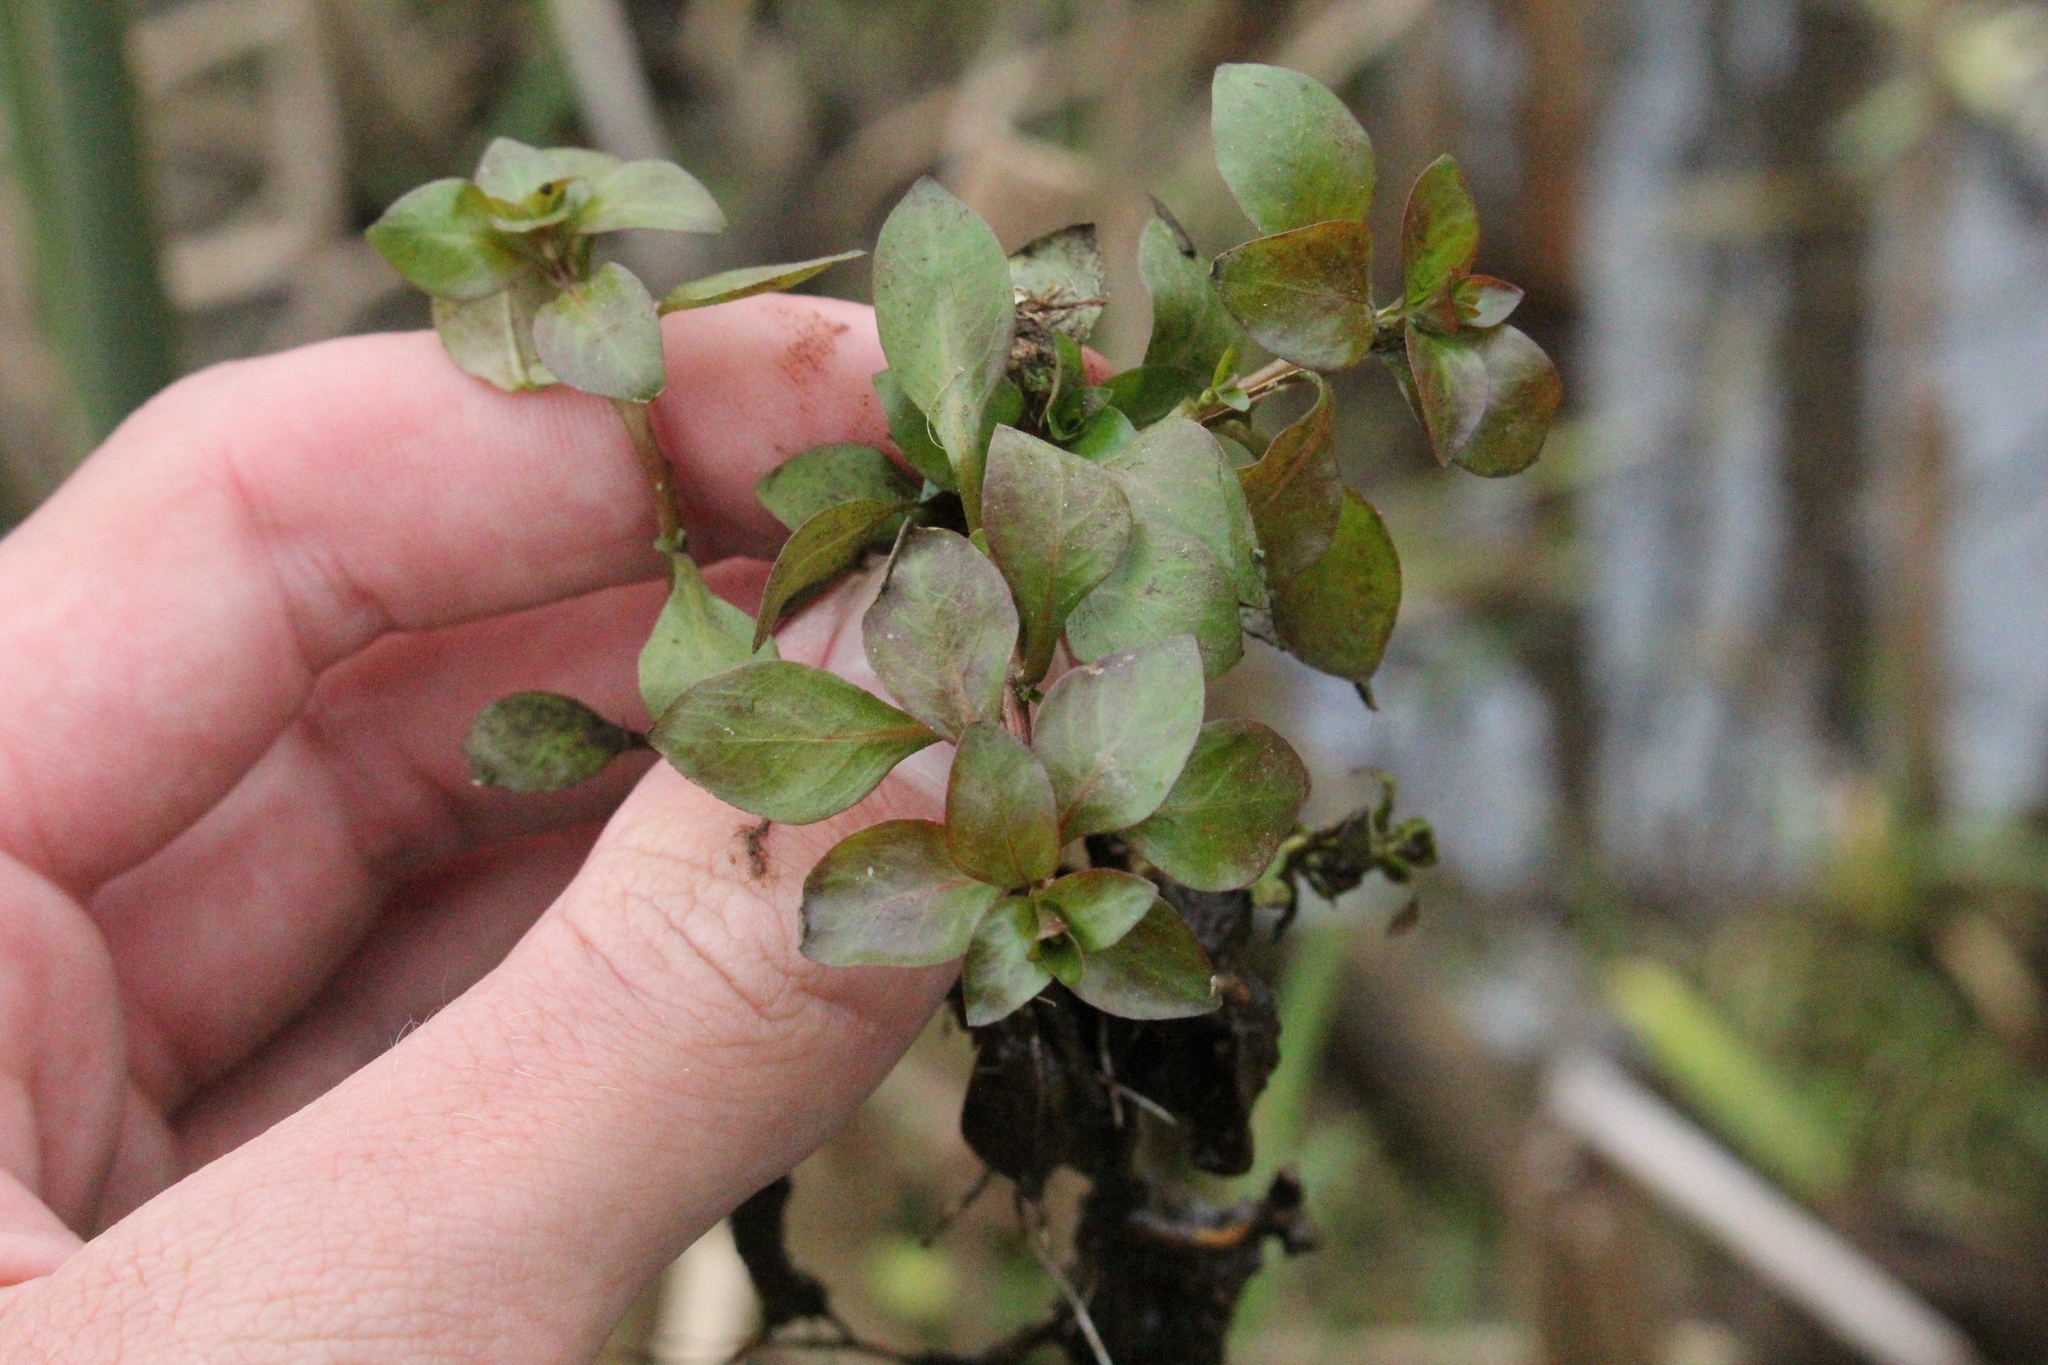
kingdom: Plantae
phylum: Tracheophyta
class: Magnoliopsida
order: Myrtales
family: Onagraceae
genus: Ludwigia
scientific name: Ludwigia palustris
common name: Hampshire-purslane
